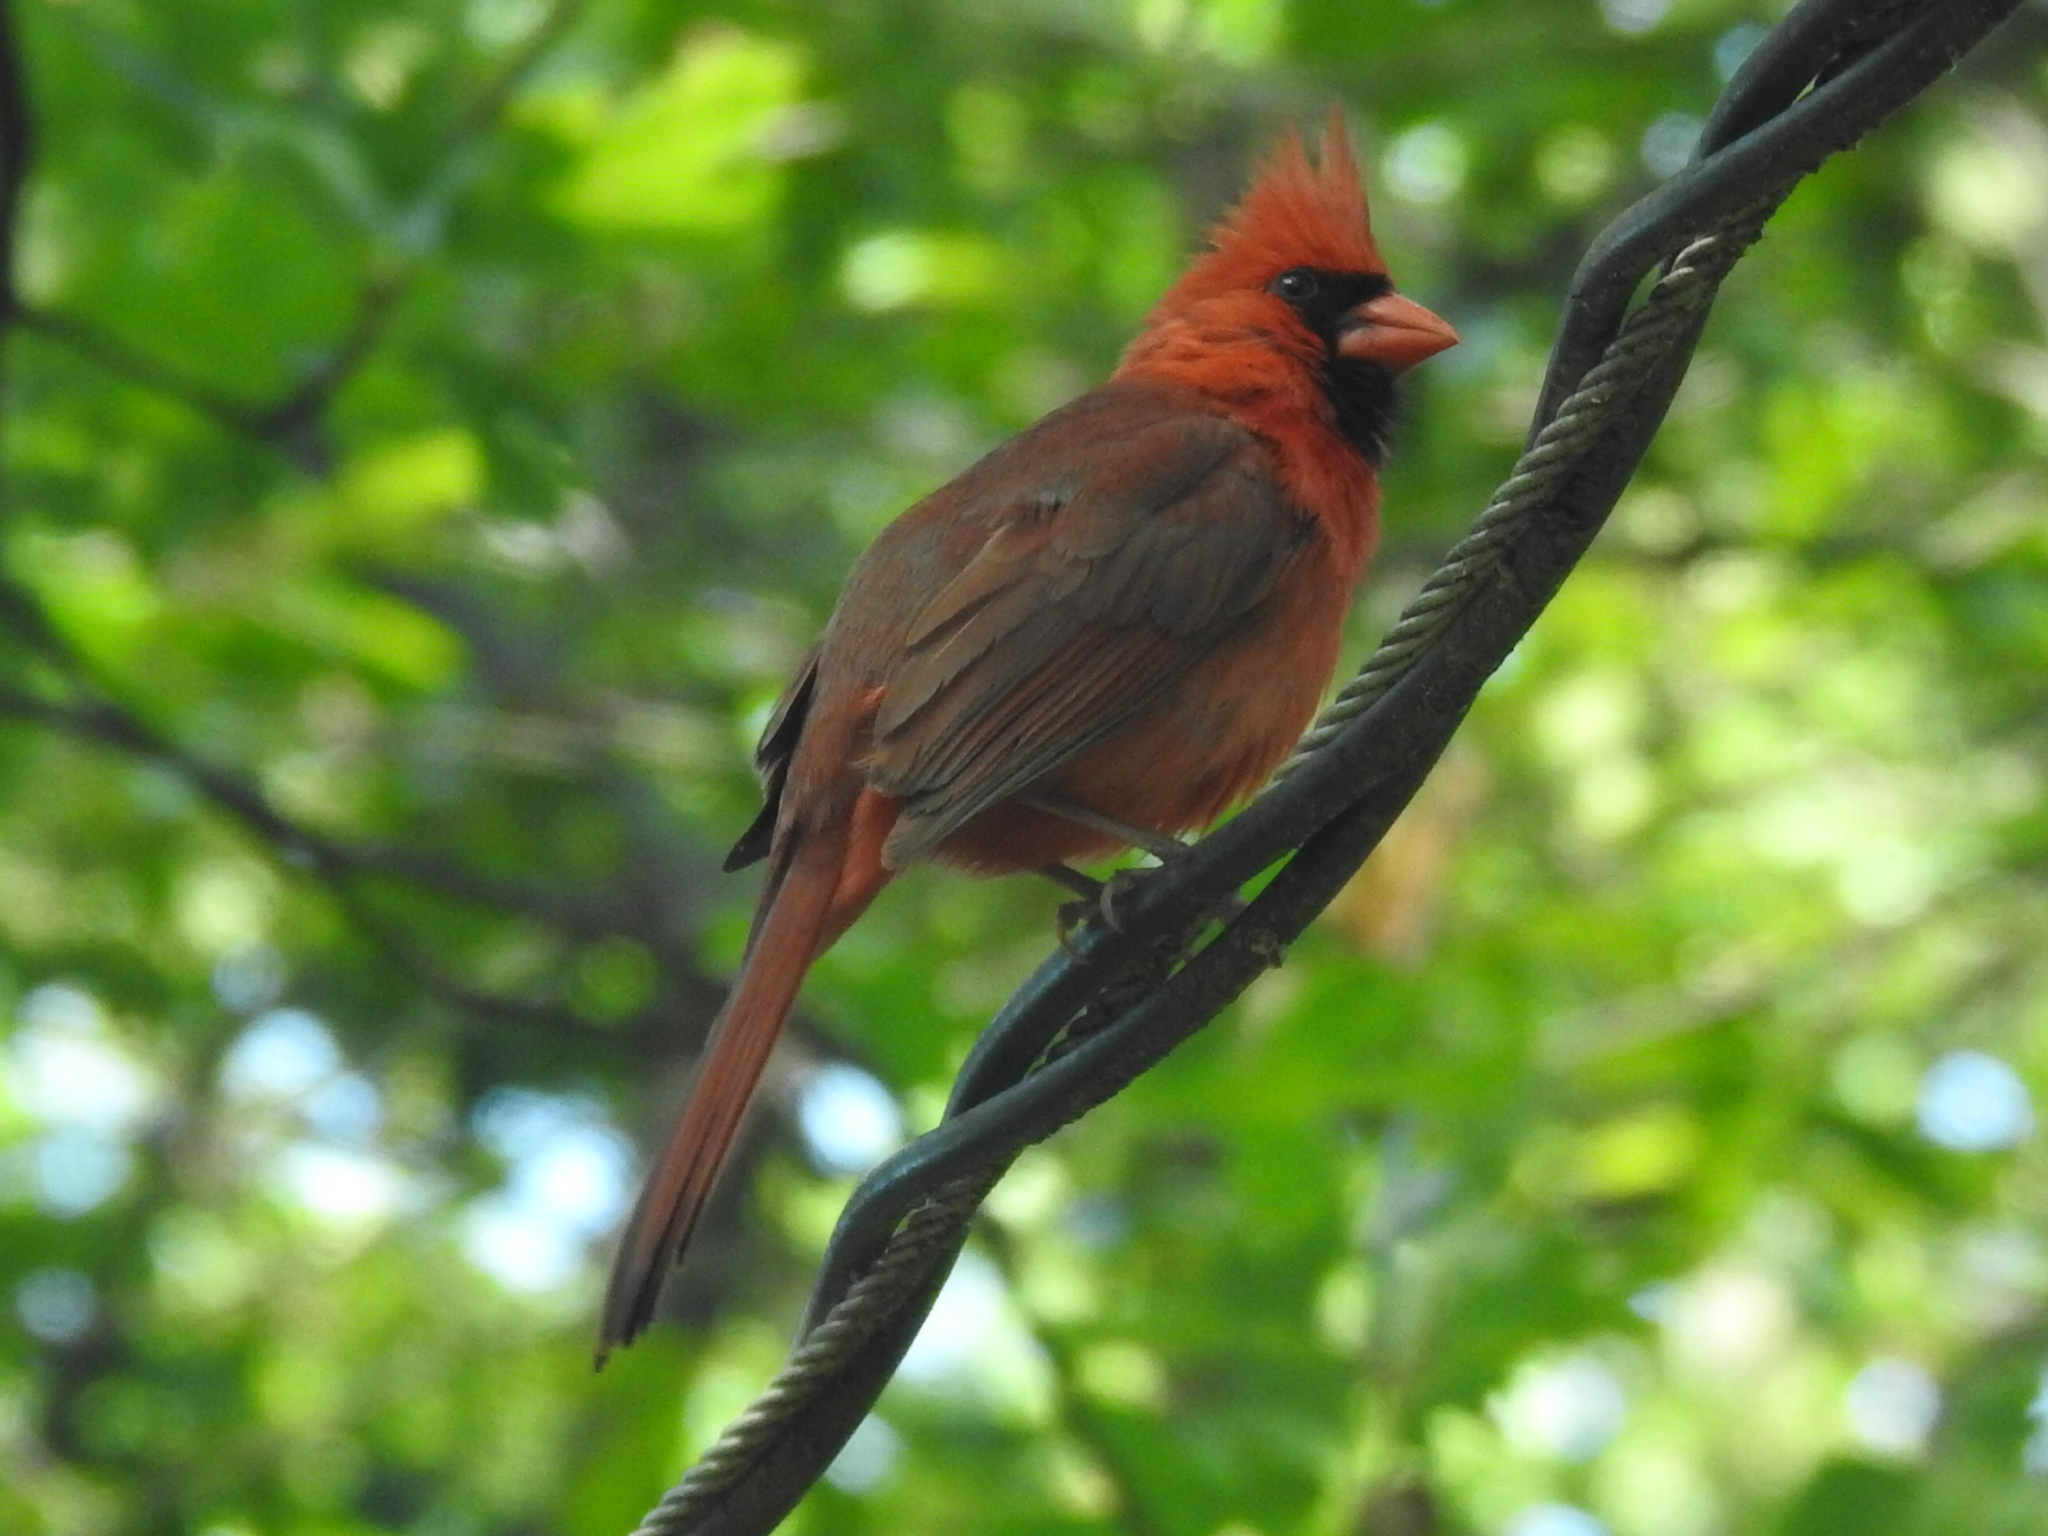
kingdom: Animalia
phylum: Chordata
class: Aves
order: Passeriformes
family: Cardinalidae
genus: Cardinalis
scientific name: Cardinalis cardinalis
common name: Northern cardinal
